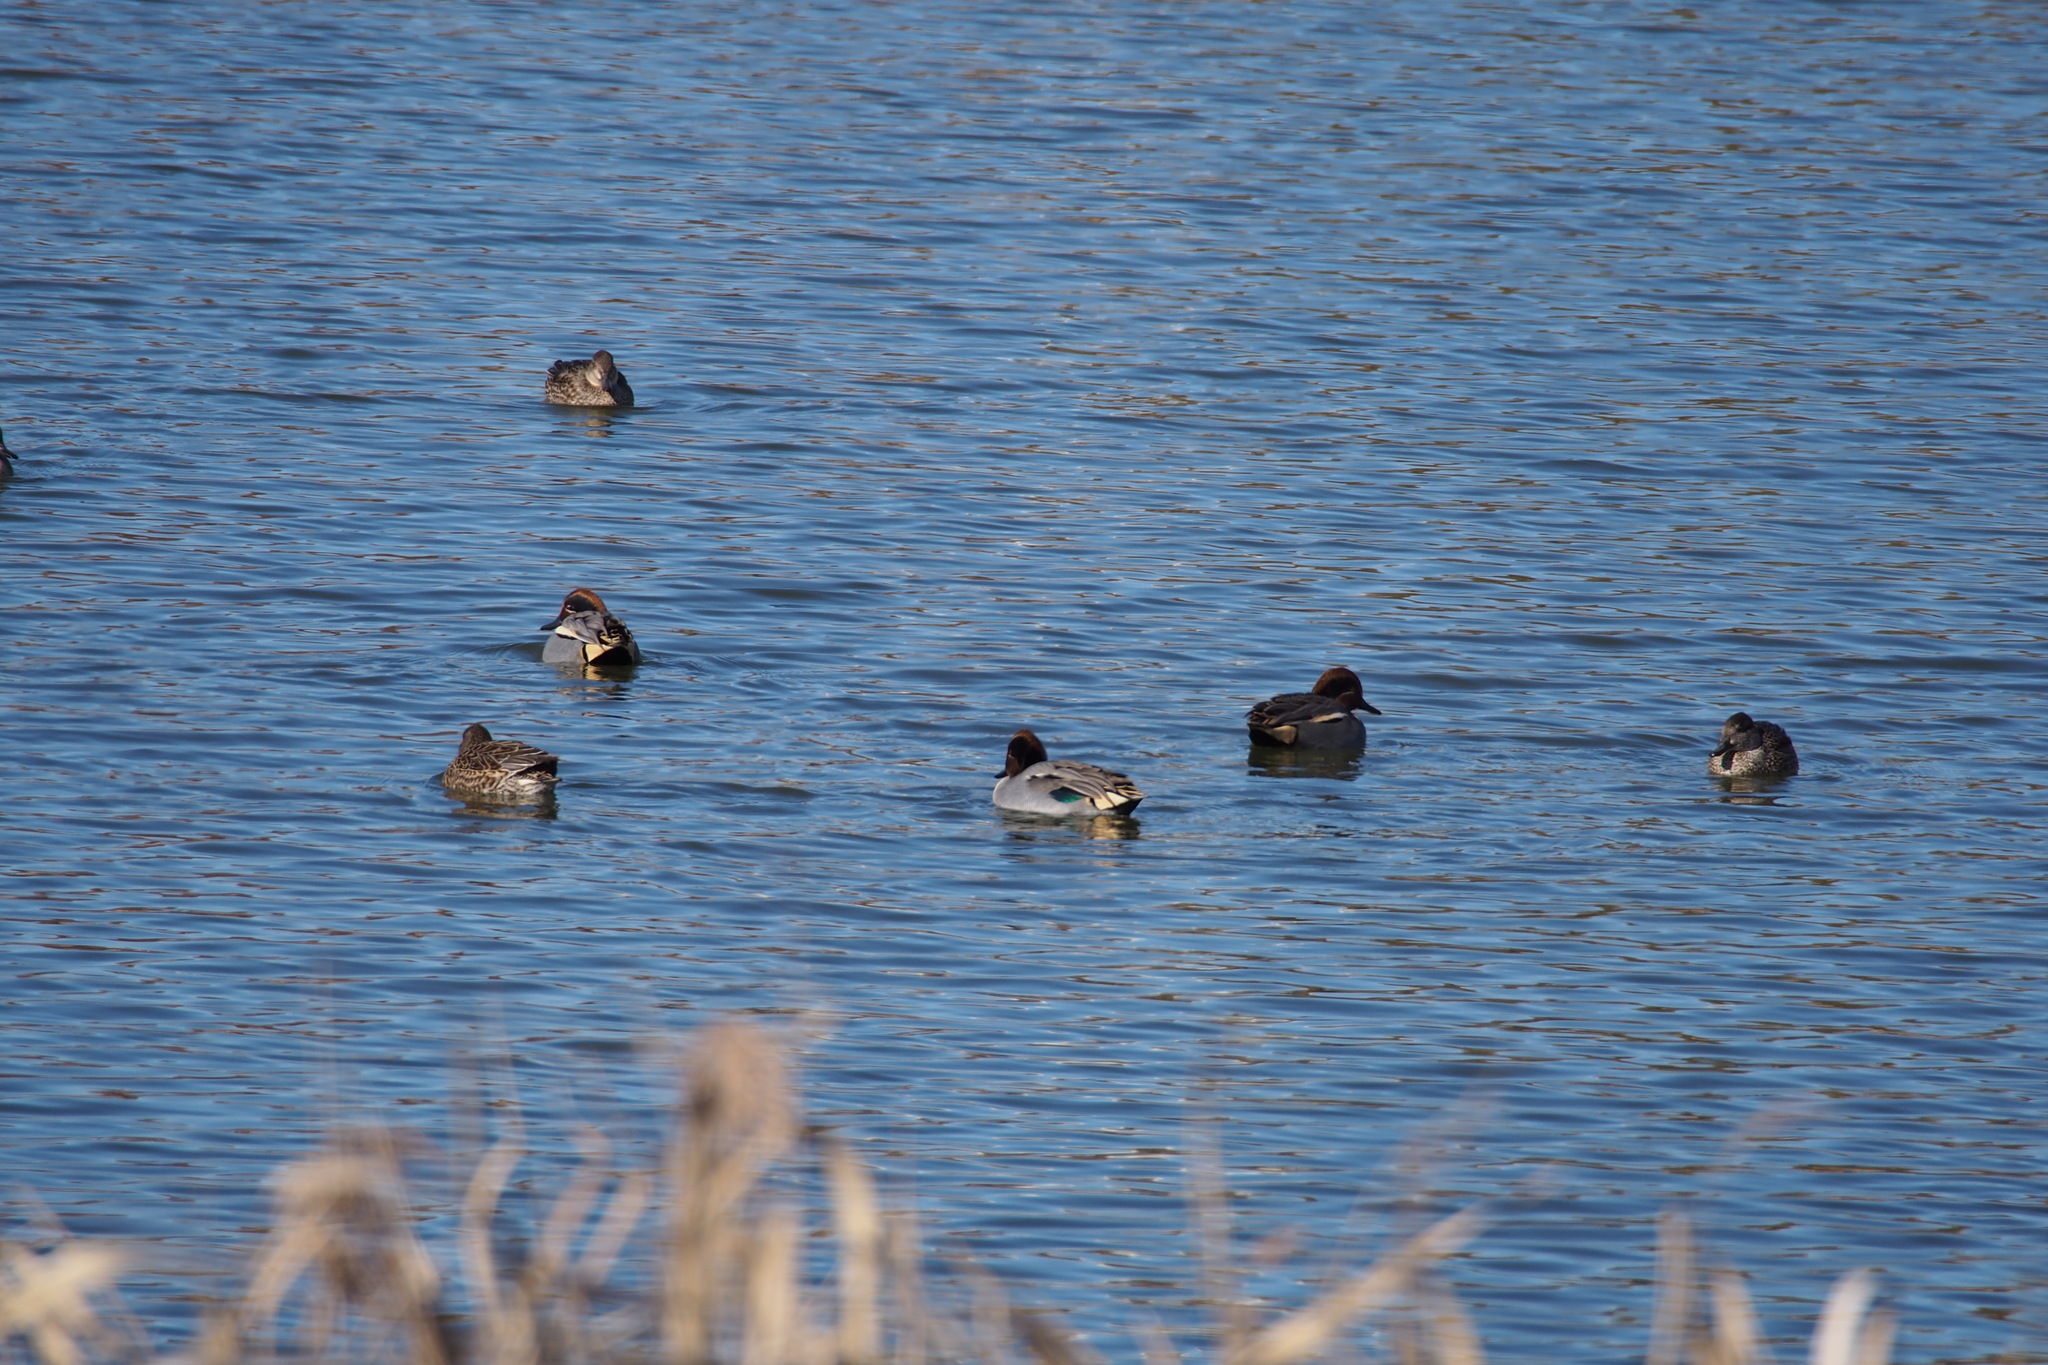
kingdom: Animalia
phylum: Chordata
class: Aves
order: Anseriformes
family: Anatidae
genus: Anas
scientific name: Anas crecca
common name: Eurasian teal
